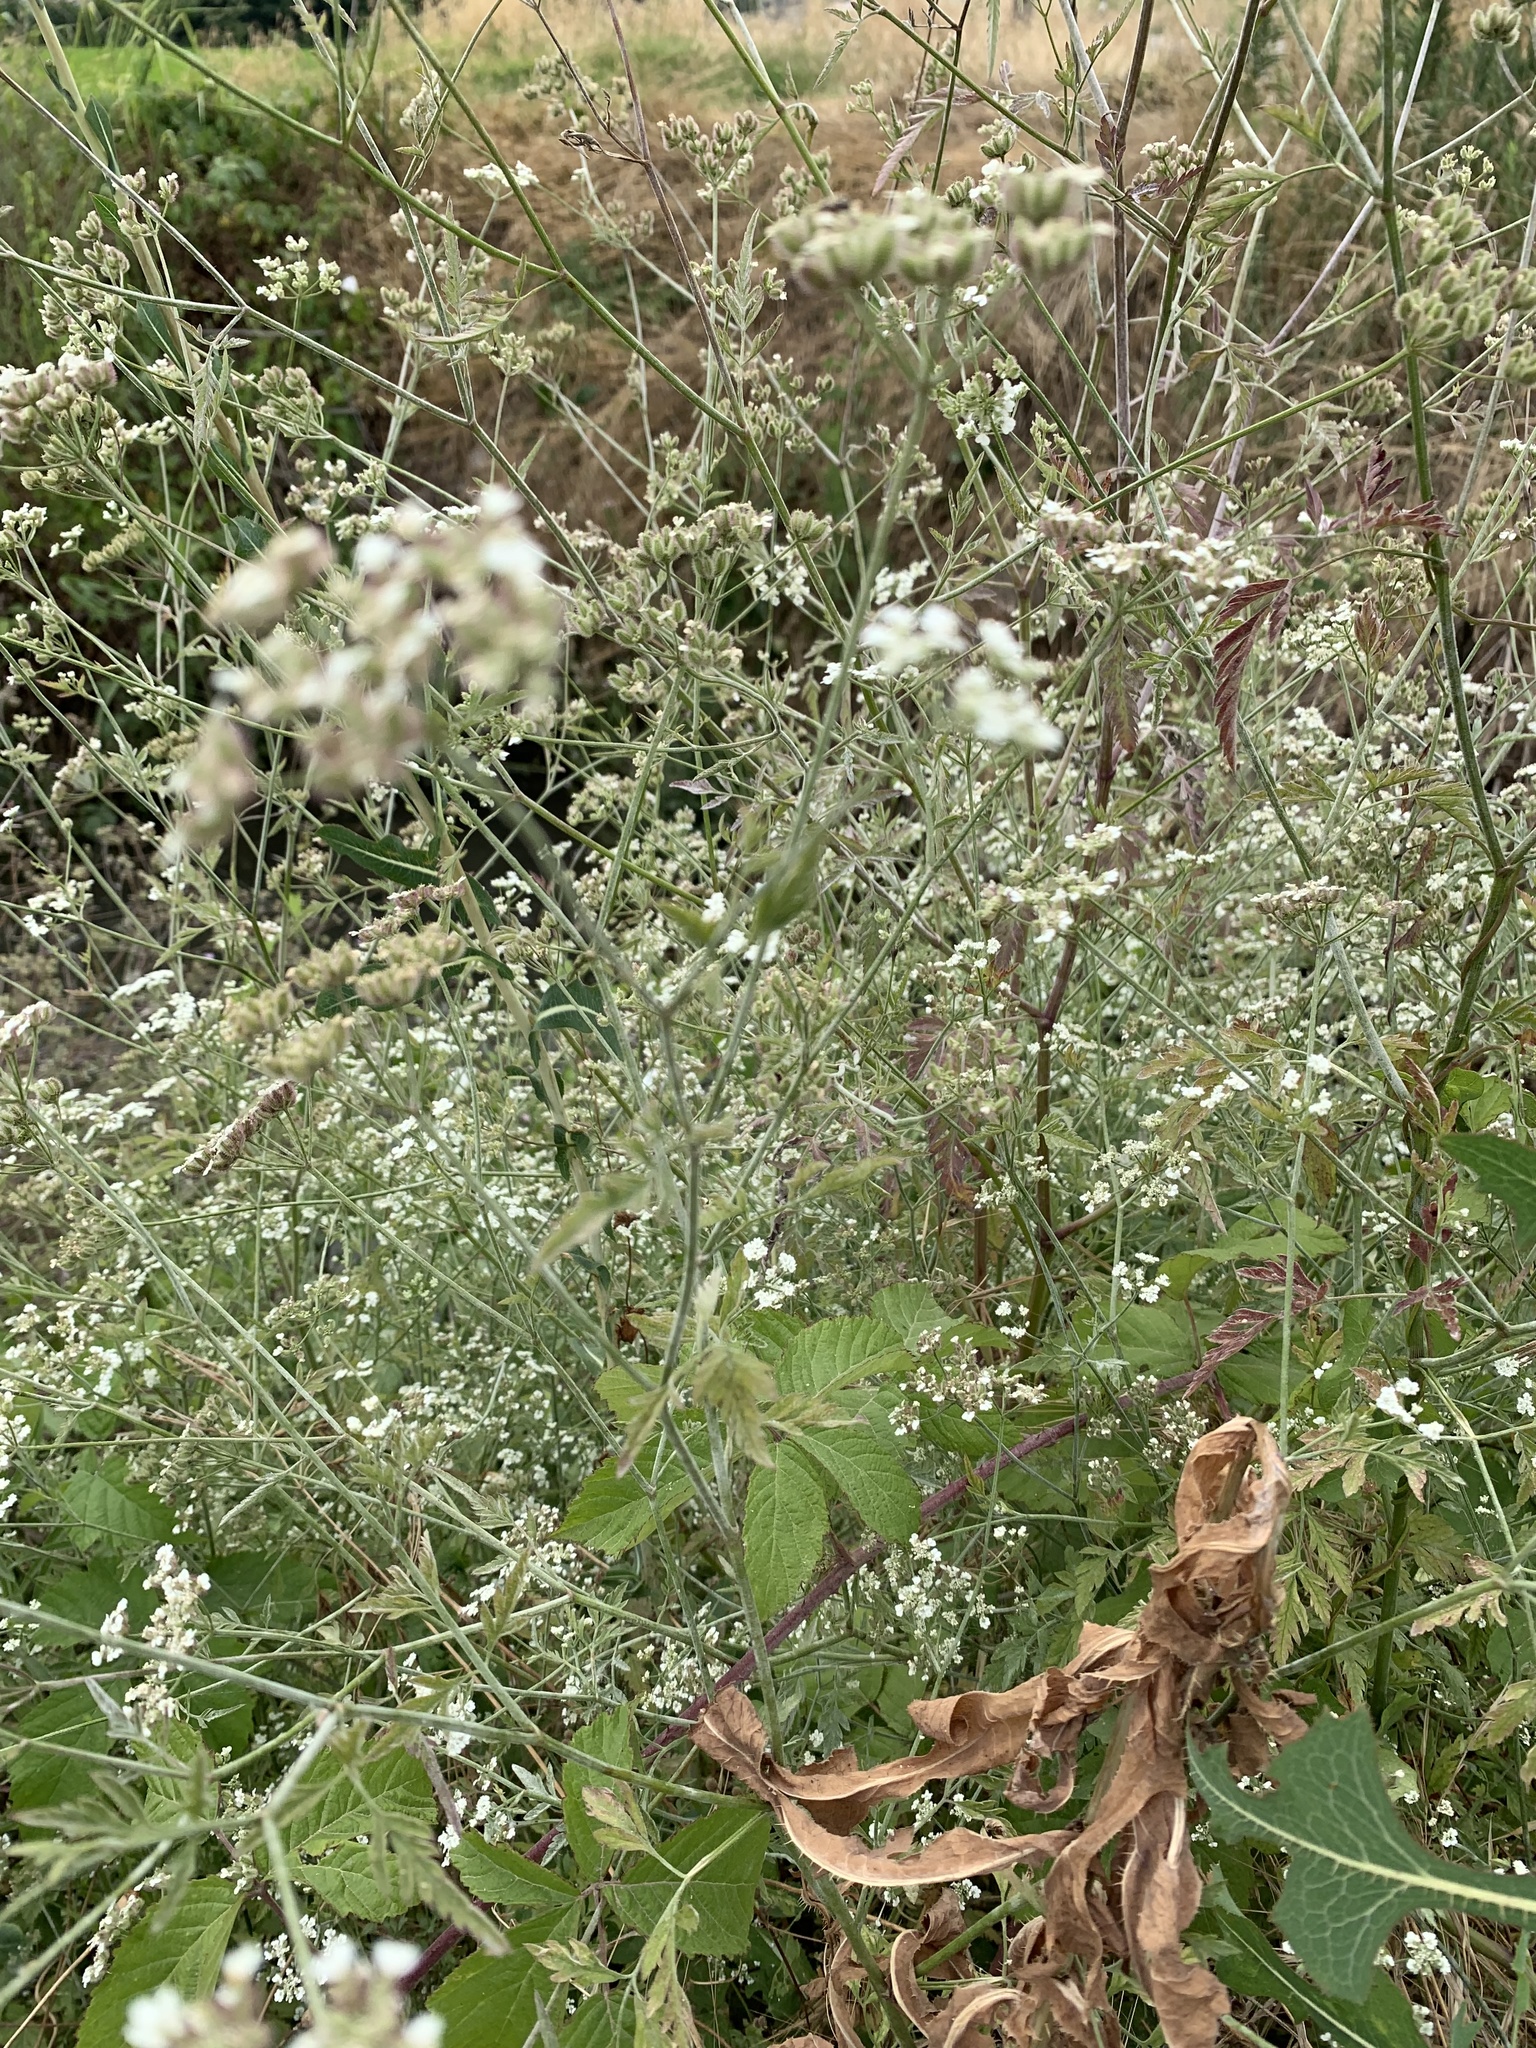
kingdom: Plantae
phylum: Tracheophyta
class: Magnoliopsida
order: Apiales
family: Apiaceae
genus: Torilis
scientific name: Torilis arvensis
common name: Spreading hedge-parsley
